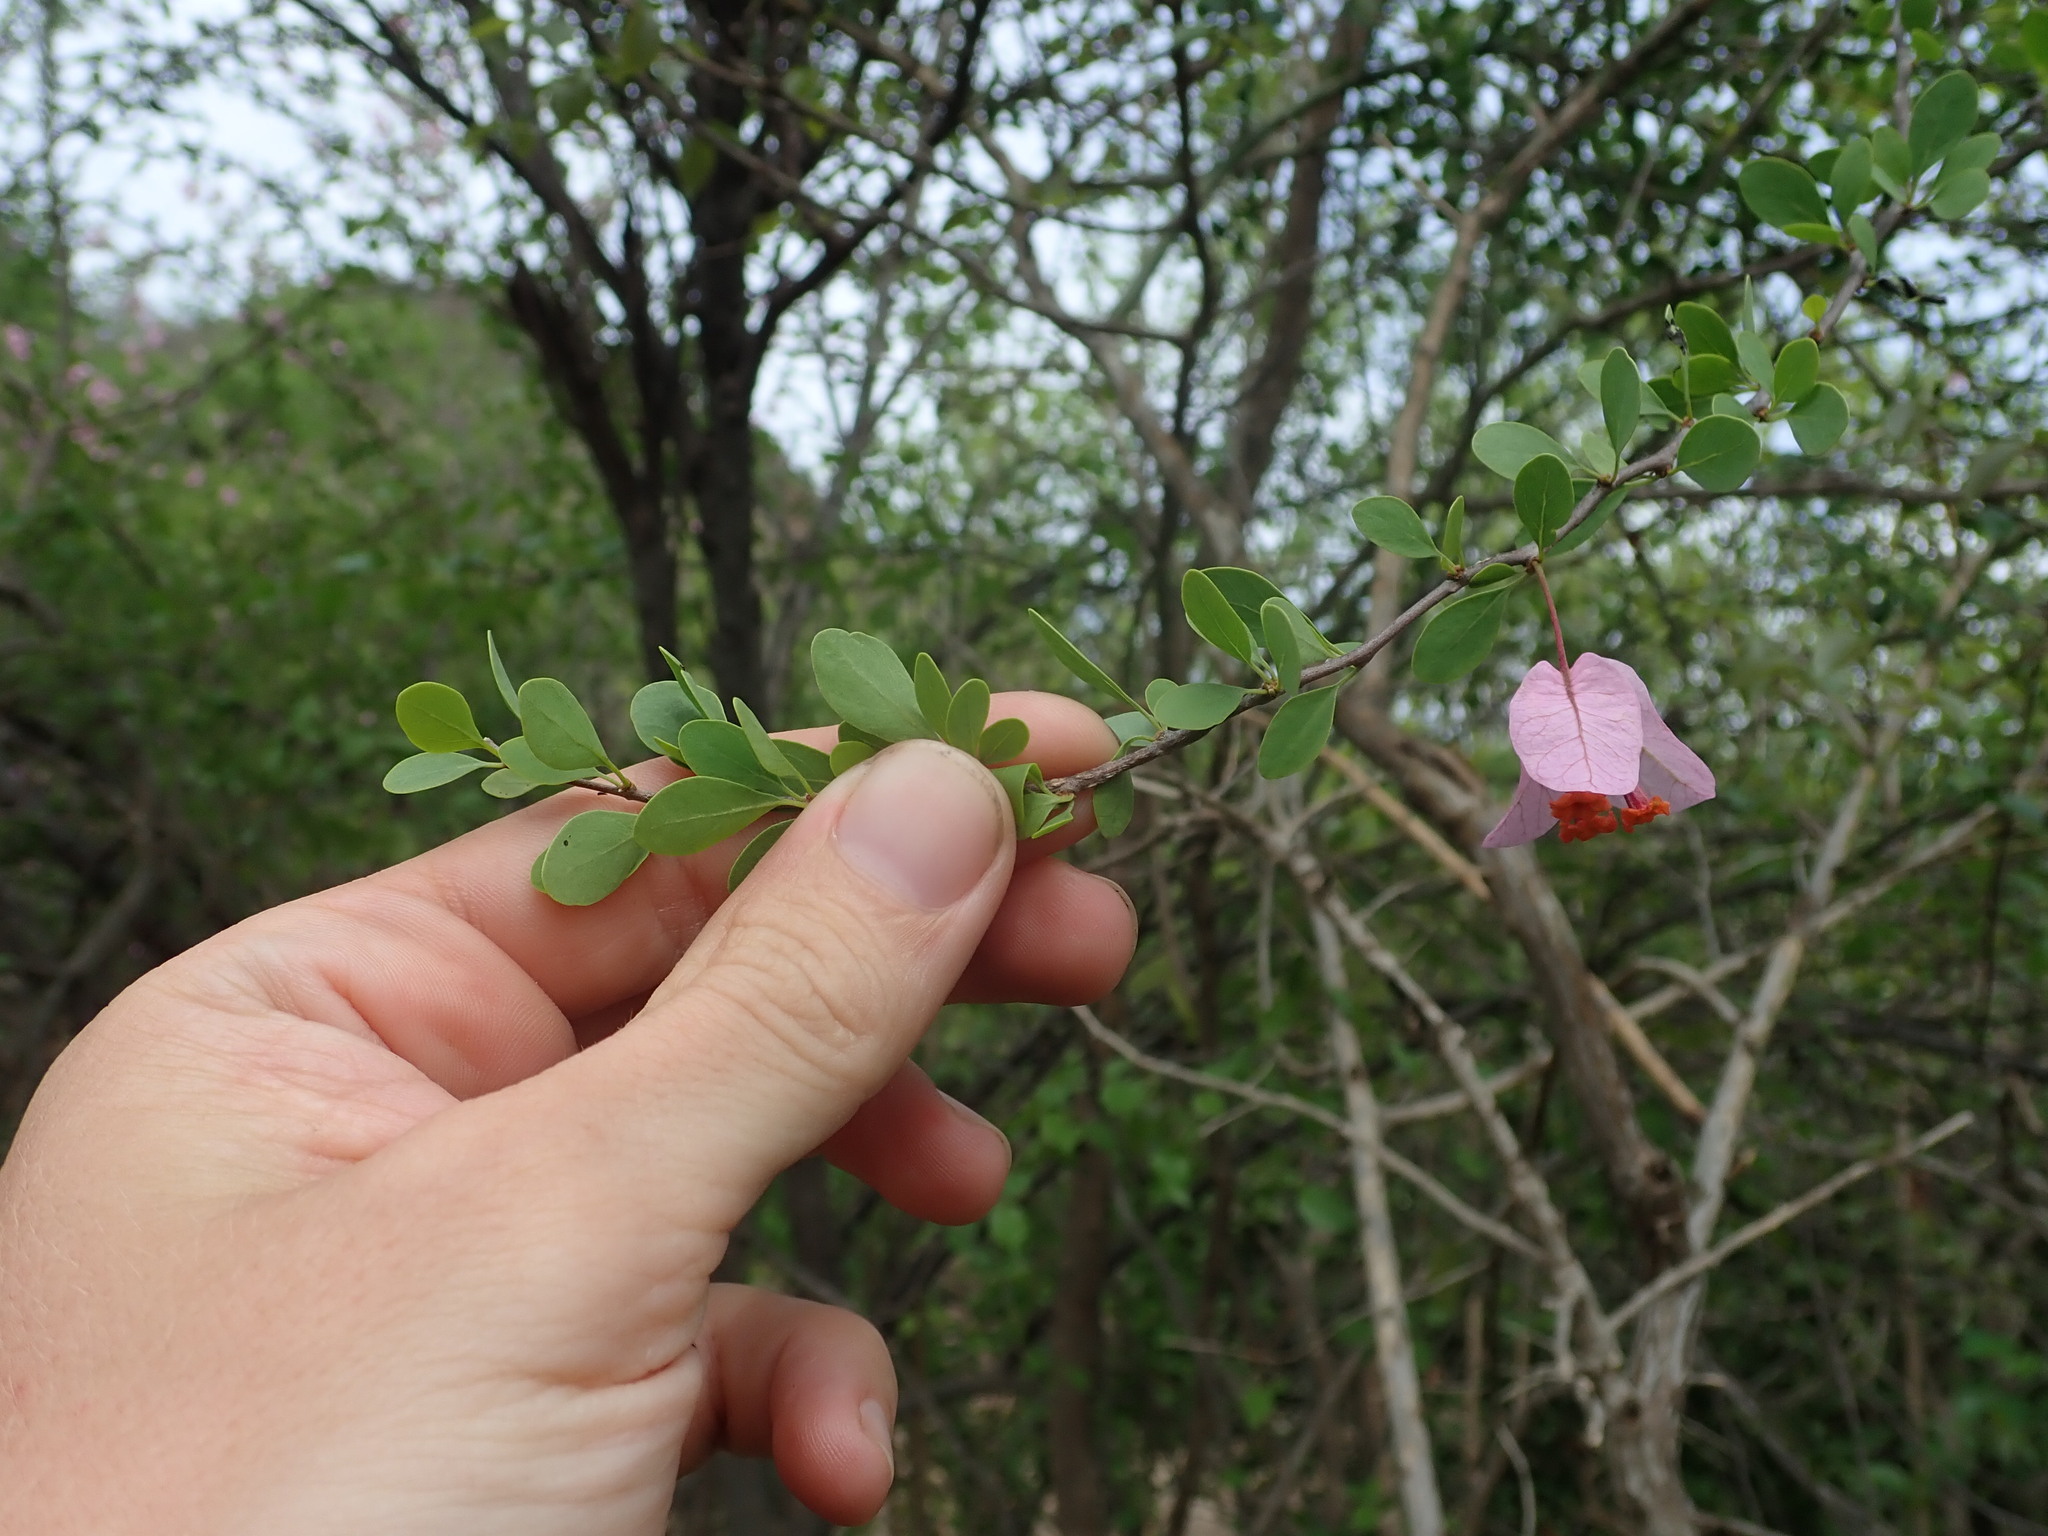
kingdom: Plantae
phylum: Tracheophyta
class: Magnoliopsida
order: Caryophyllales
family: Nyctaginaceae
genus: Bougainvillea
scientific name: Bougainvillea berberidifolia
